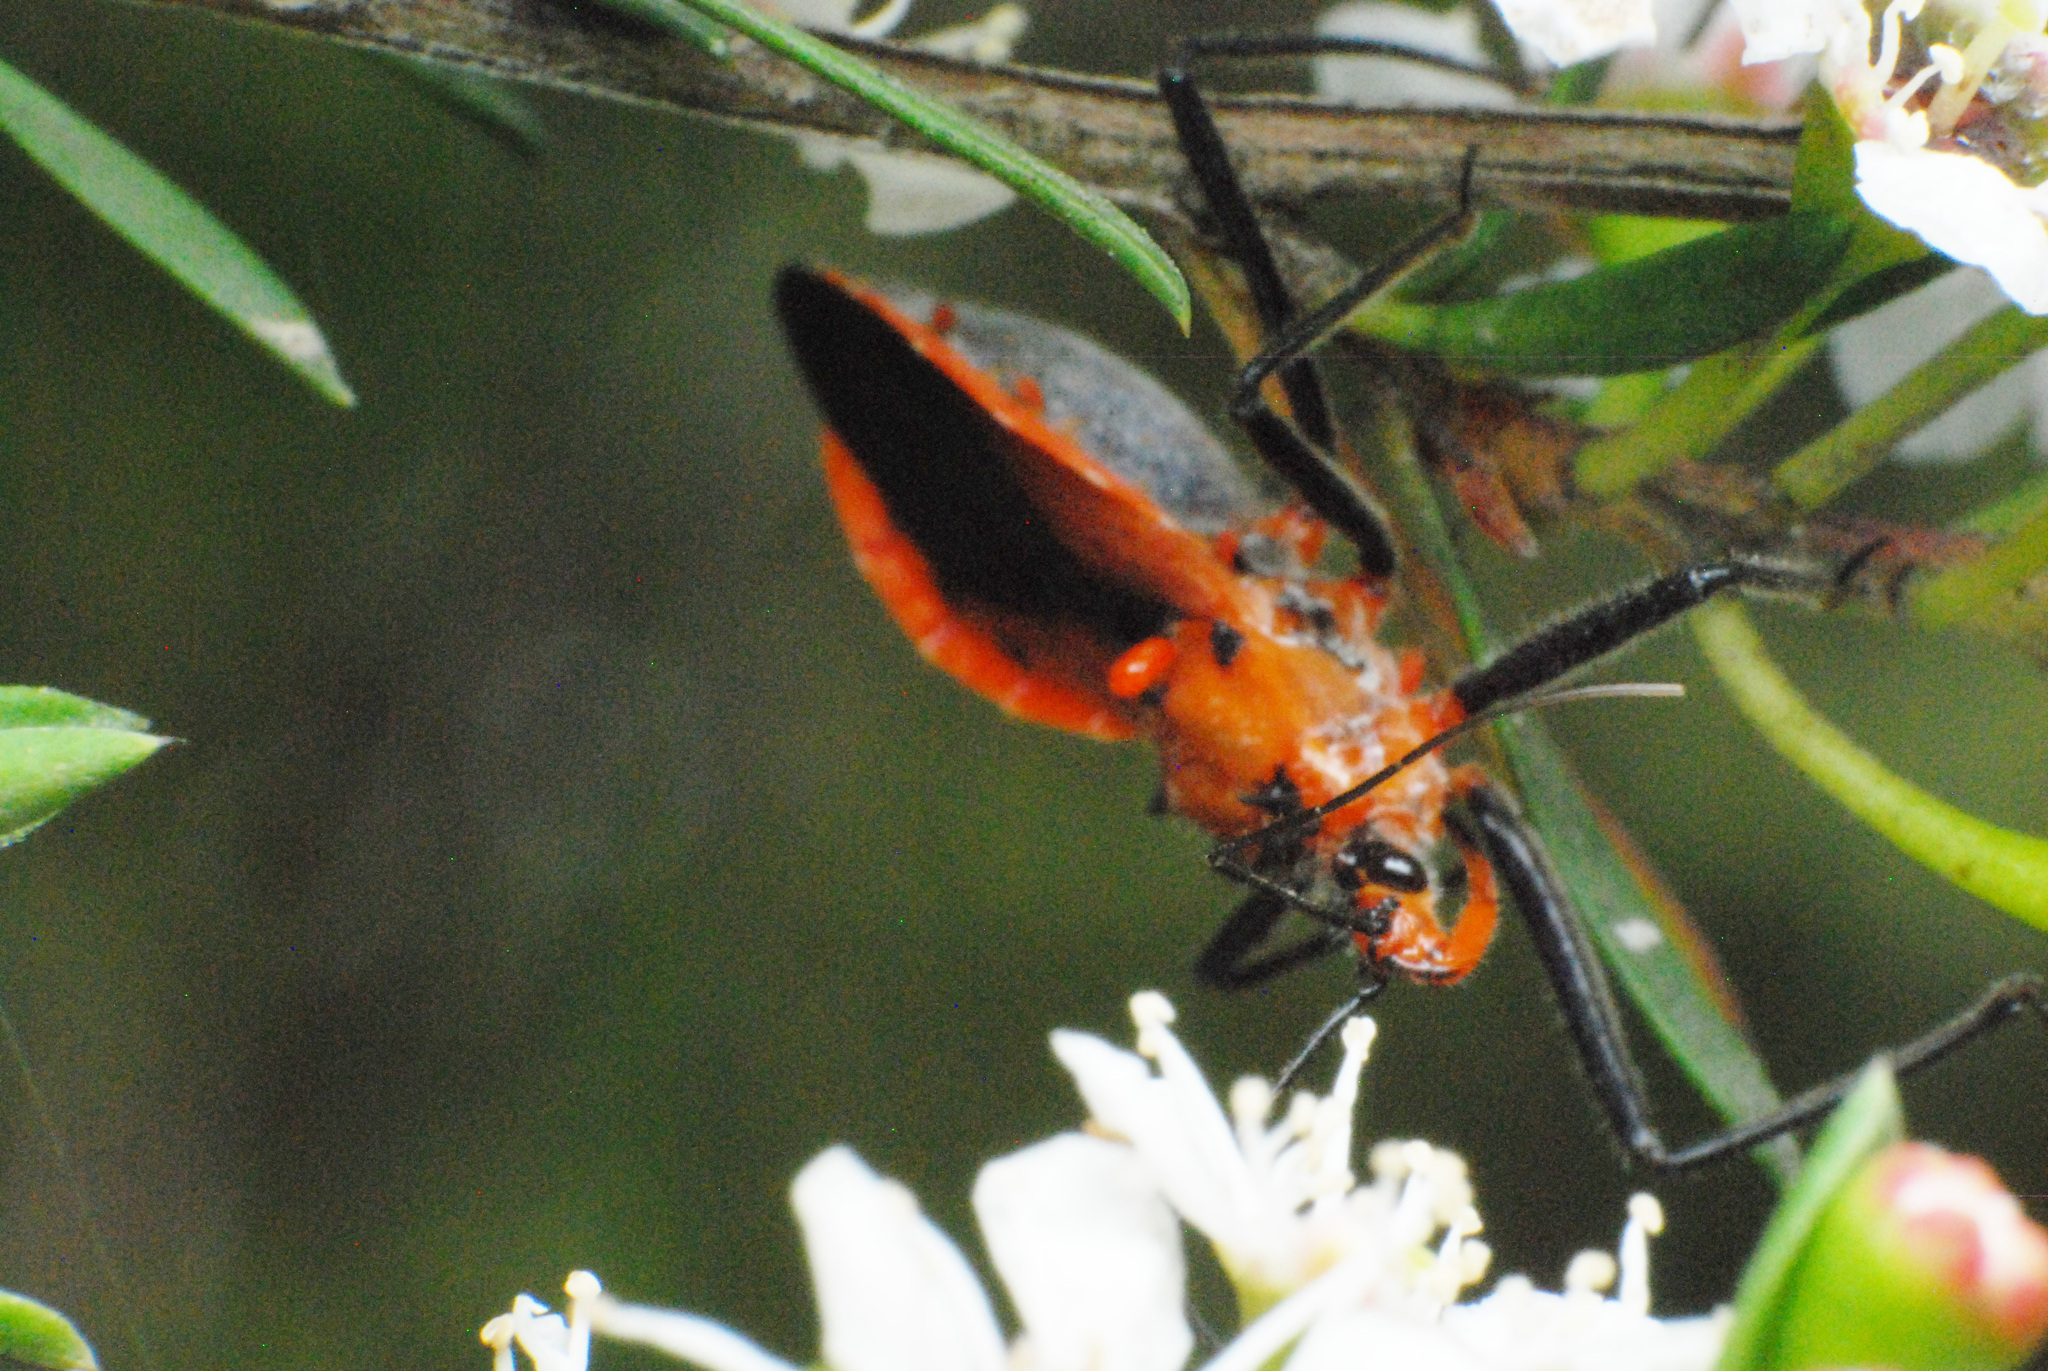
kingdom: Animalia
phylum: Arthropoda
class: Insecta
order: Hemiptera
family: Reduviidae
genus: Gminatus
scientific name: Gminatus australis
